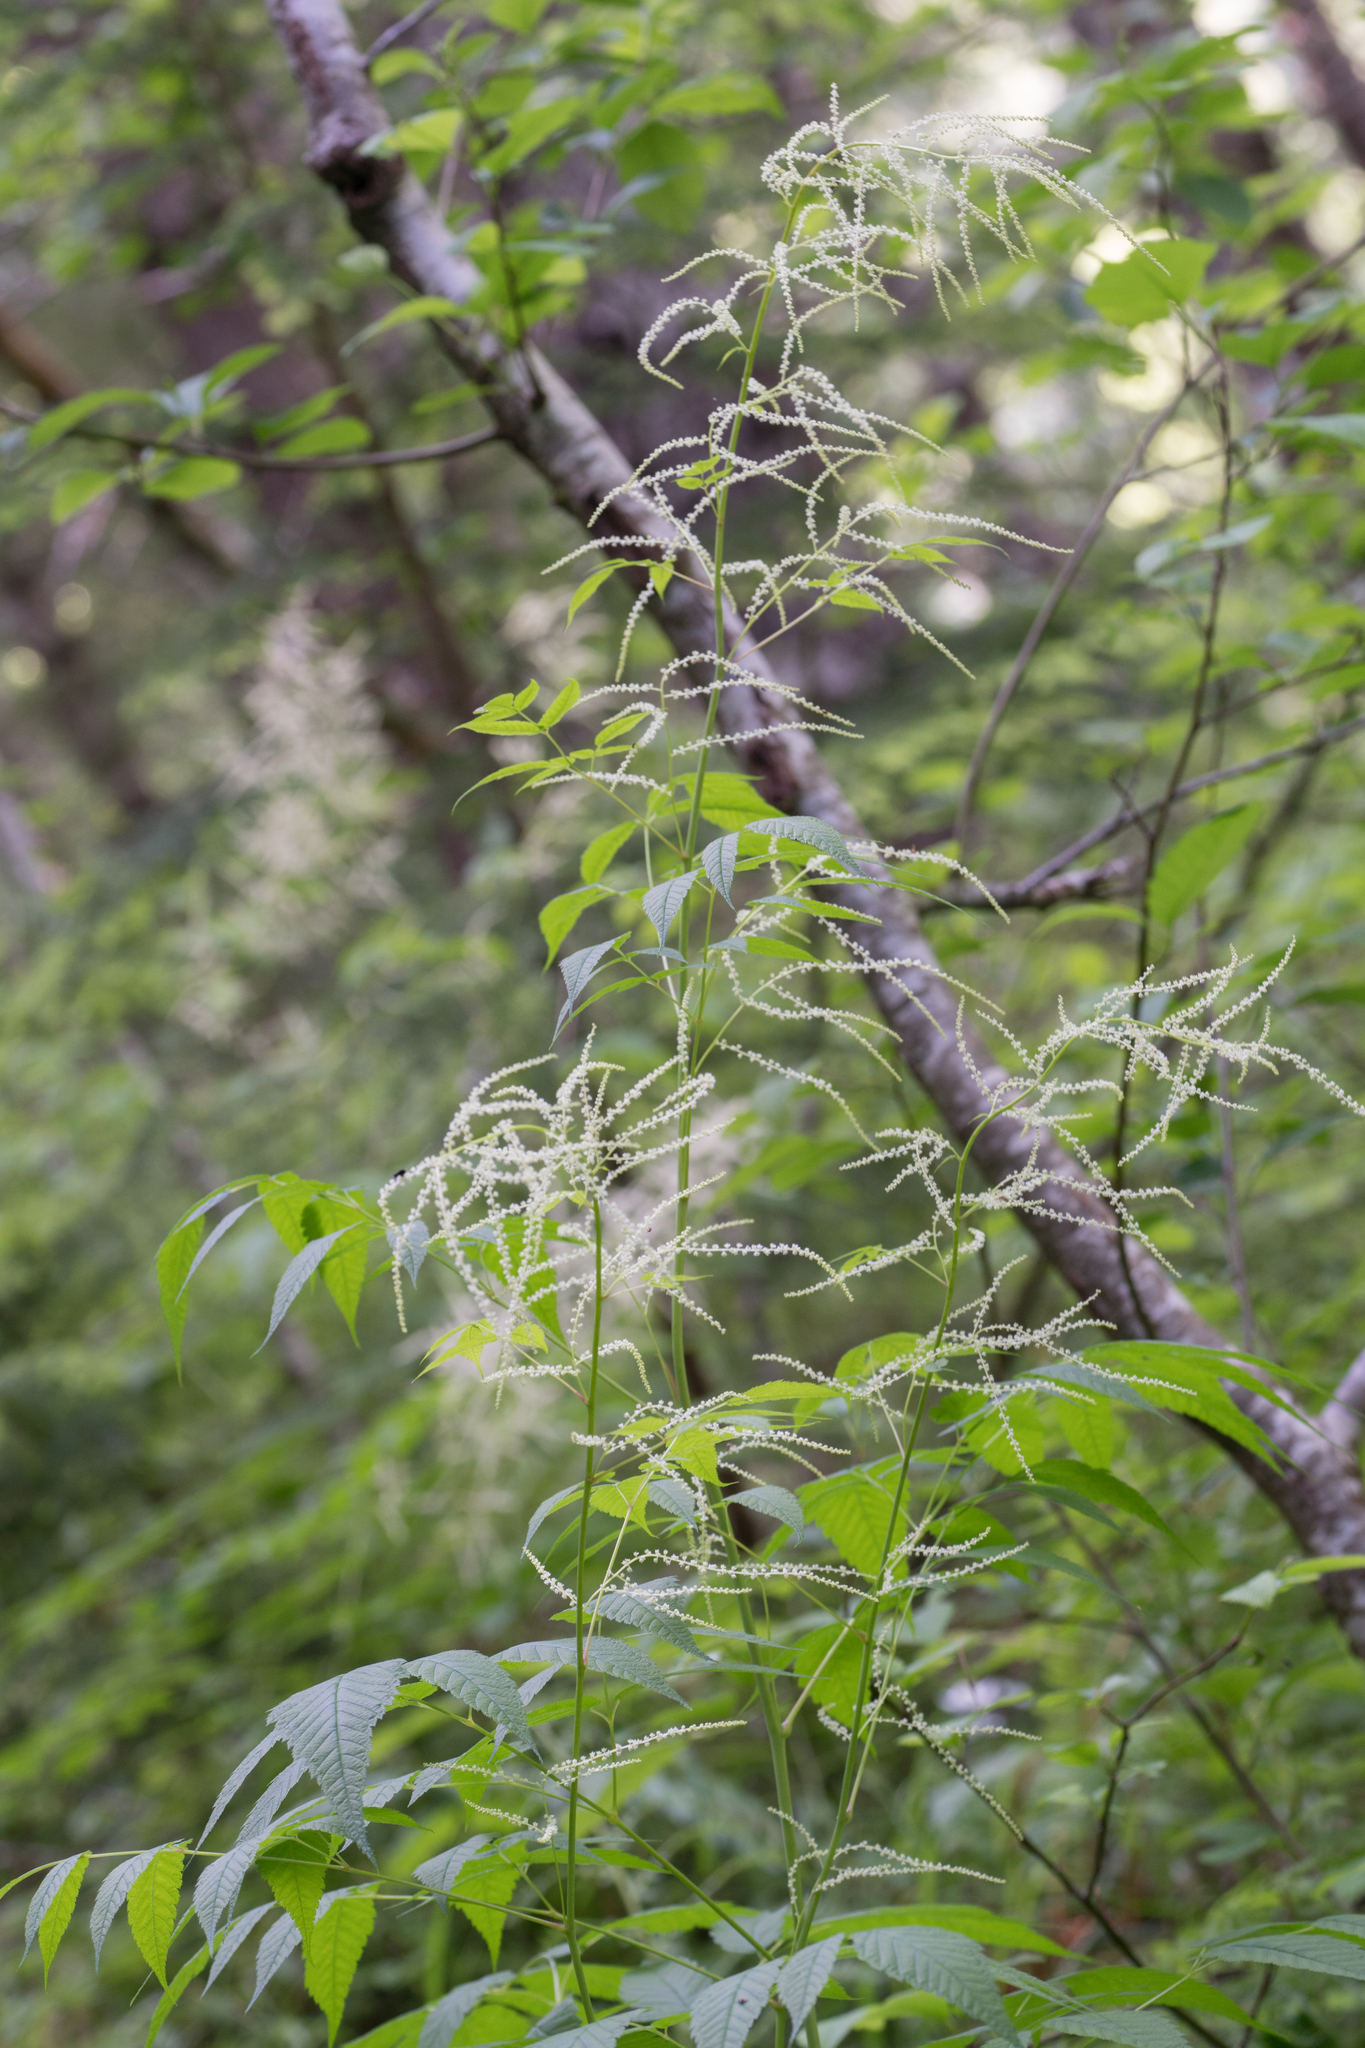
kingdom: Plantae
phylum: Tracheophyta
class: Magnoliopsida
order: Rosales
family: Rosaceae
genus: Aruncus
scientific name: Aruncus dioicus
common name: Buck's-beard
